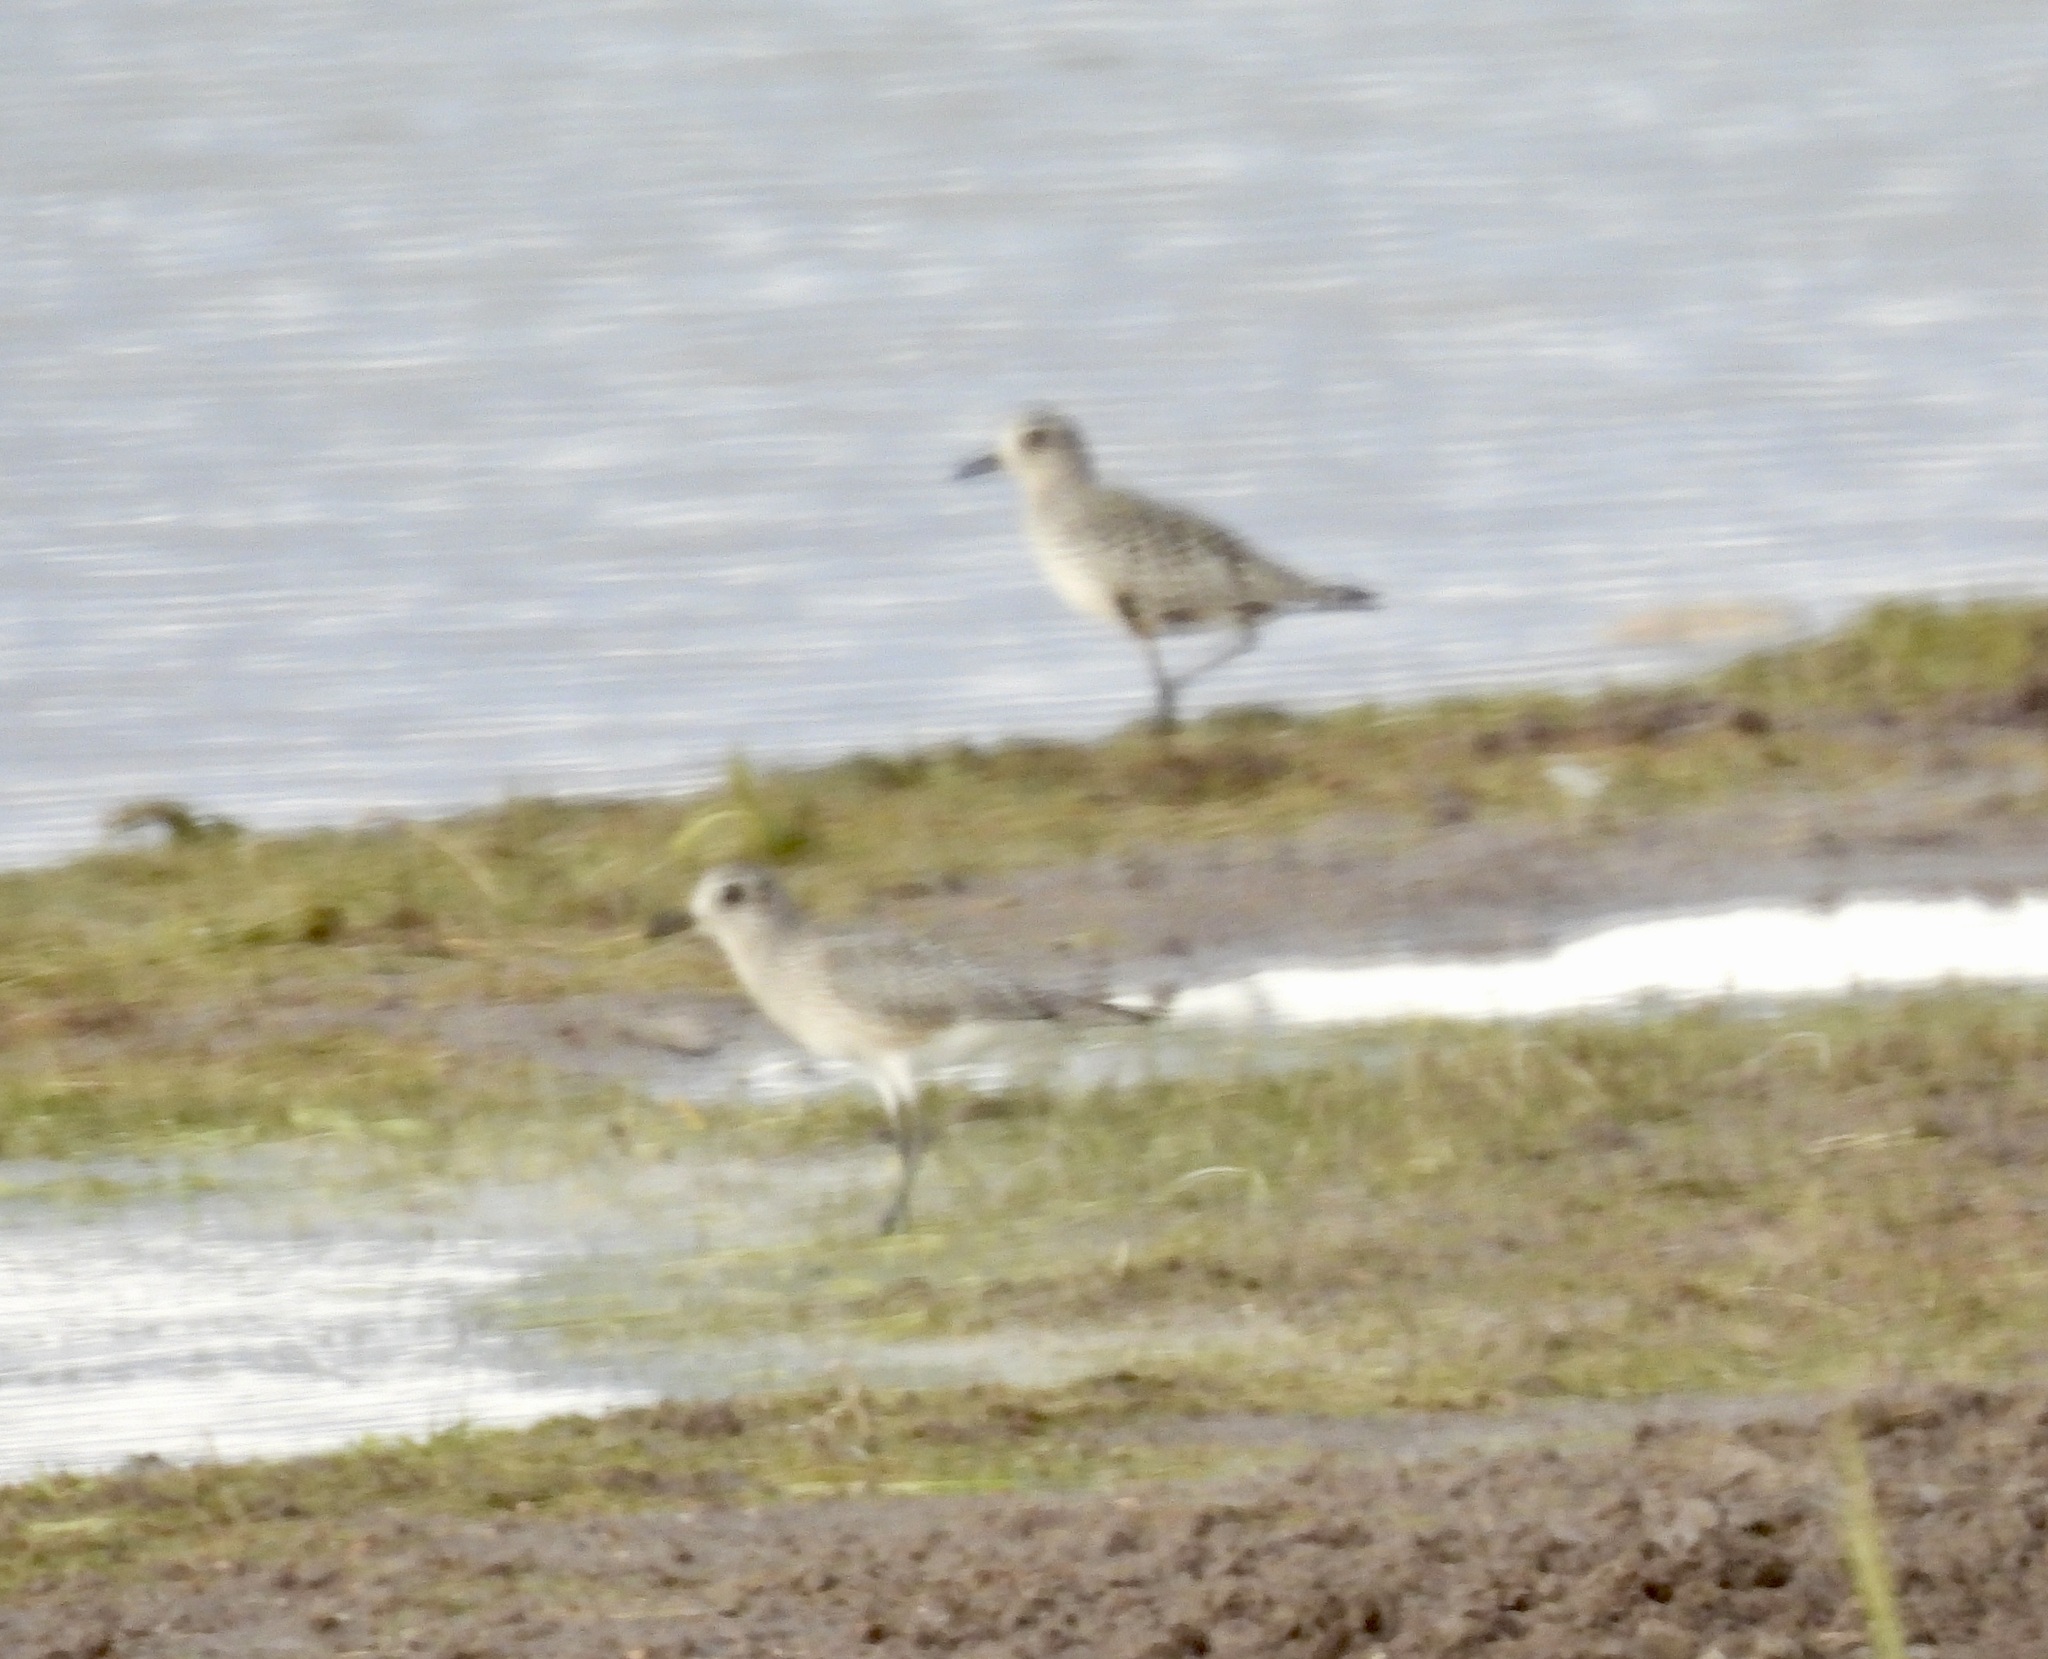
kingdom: Animalia
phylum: Chordata
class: Aves
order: Charadriiformes
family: Charadriidae
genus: Pluvialis
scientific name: Pluvialis squatarola
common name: Grey plover
